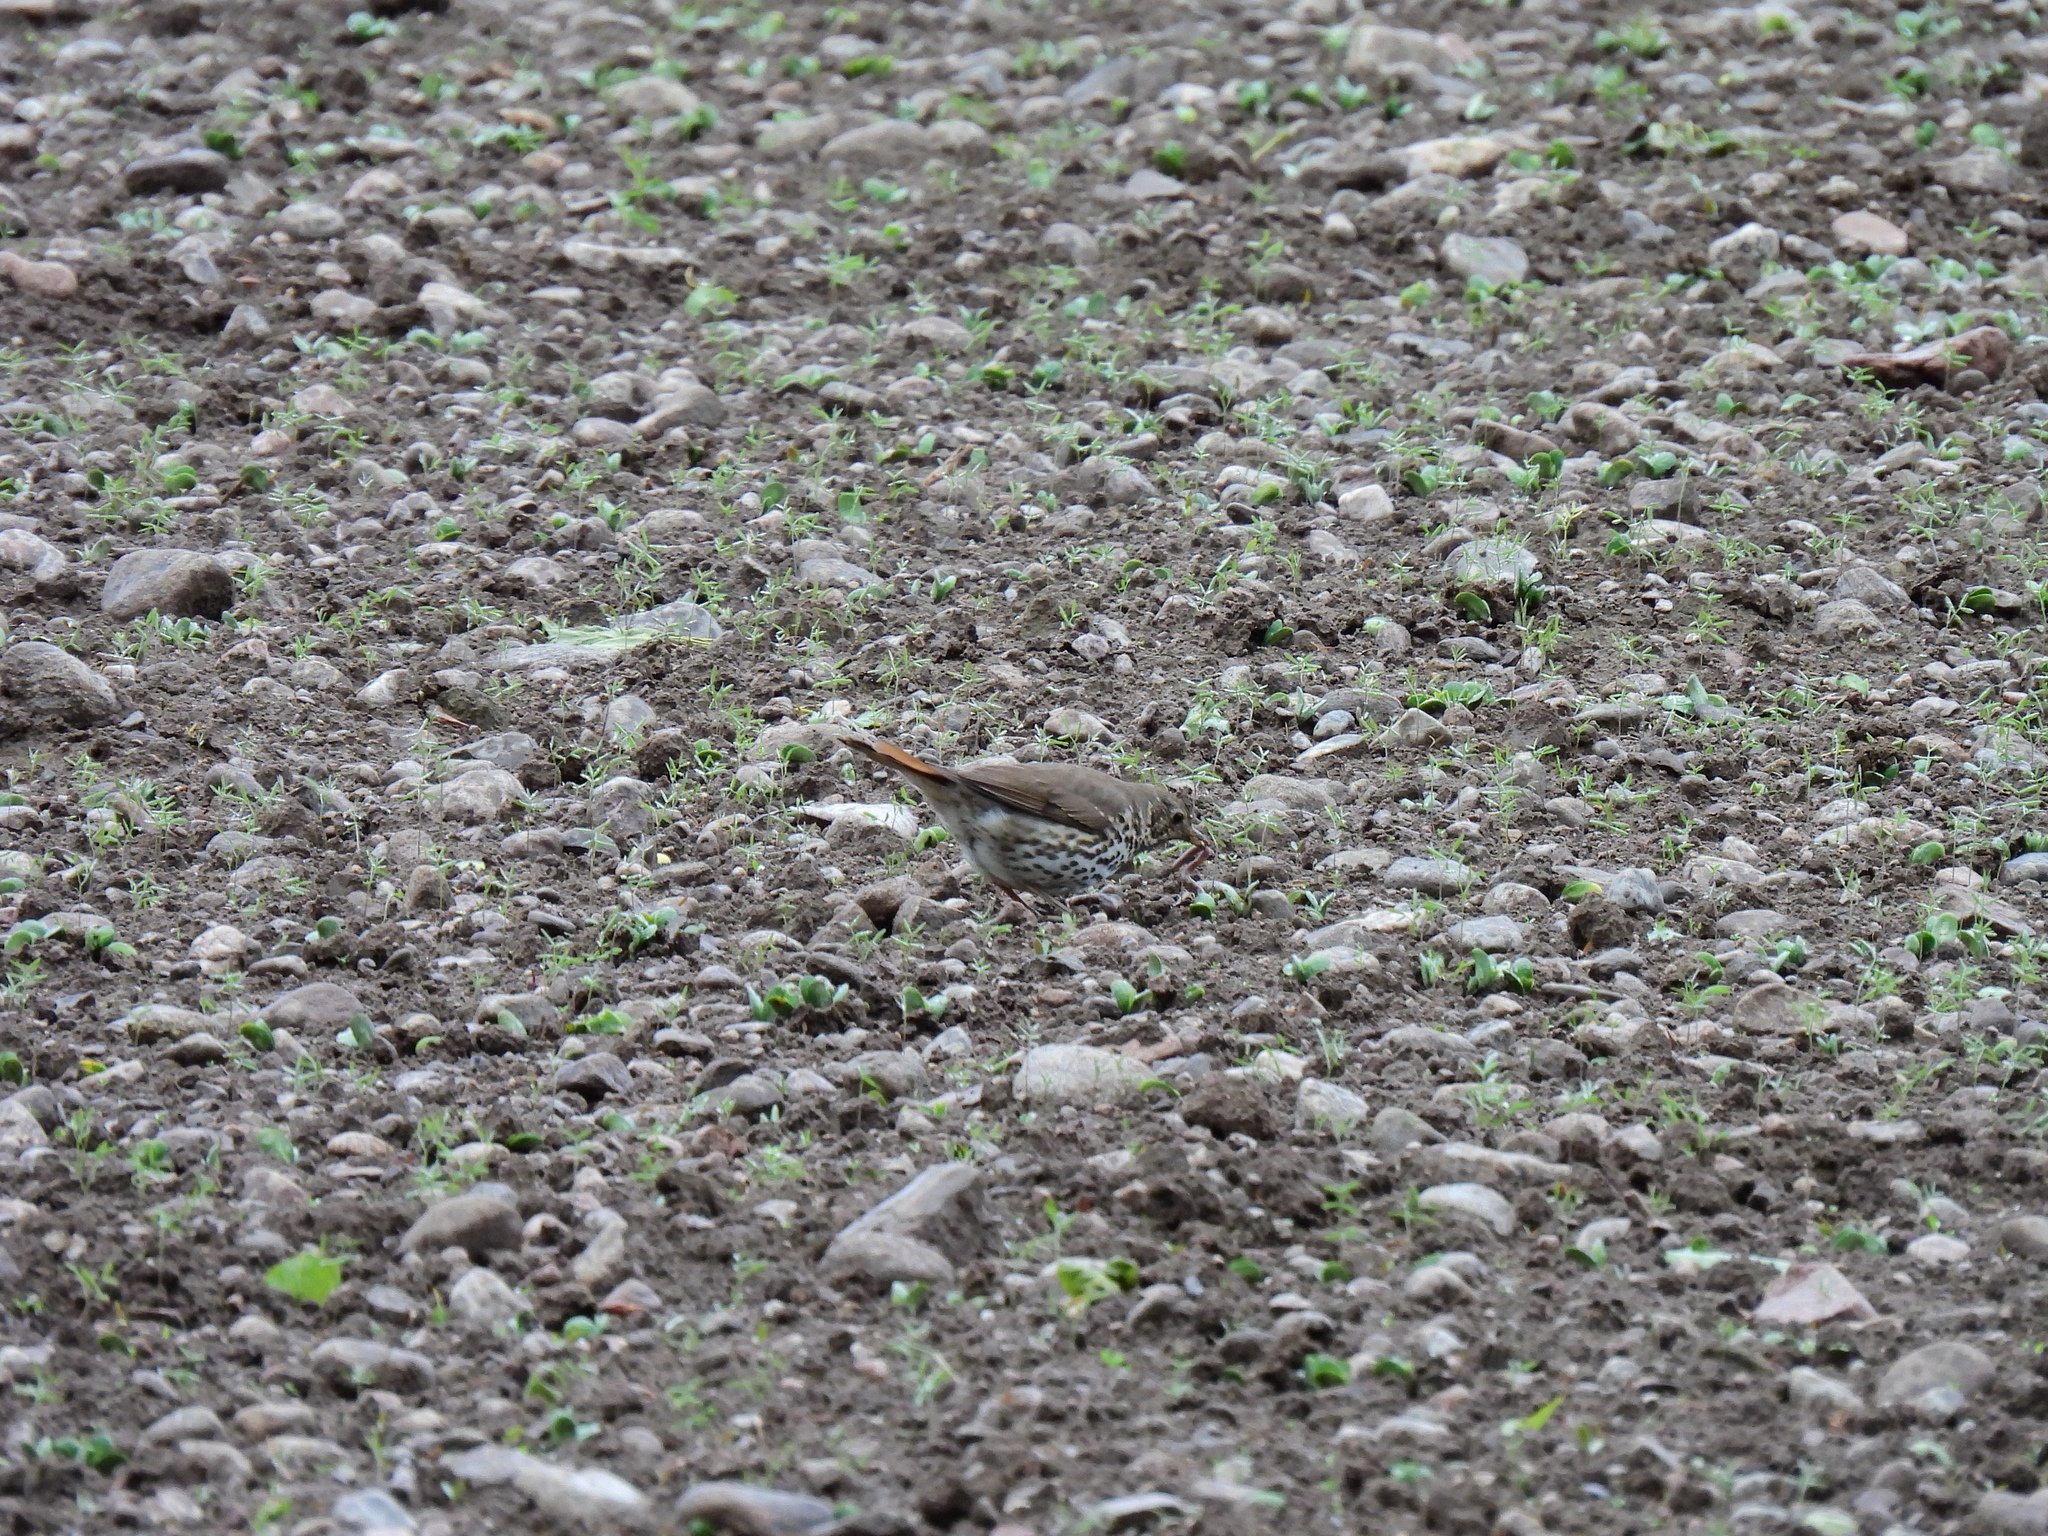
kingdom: Animalia
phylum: Chordata
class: Aves
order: Passeriformes
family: Turdidae
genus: Turdus
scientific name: Turdus philomelos
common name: Song thrush
